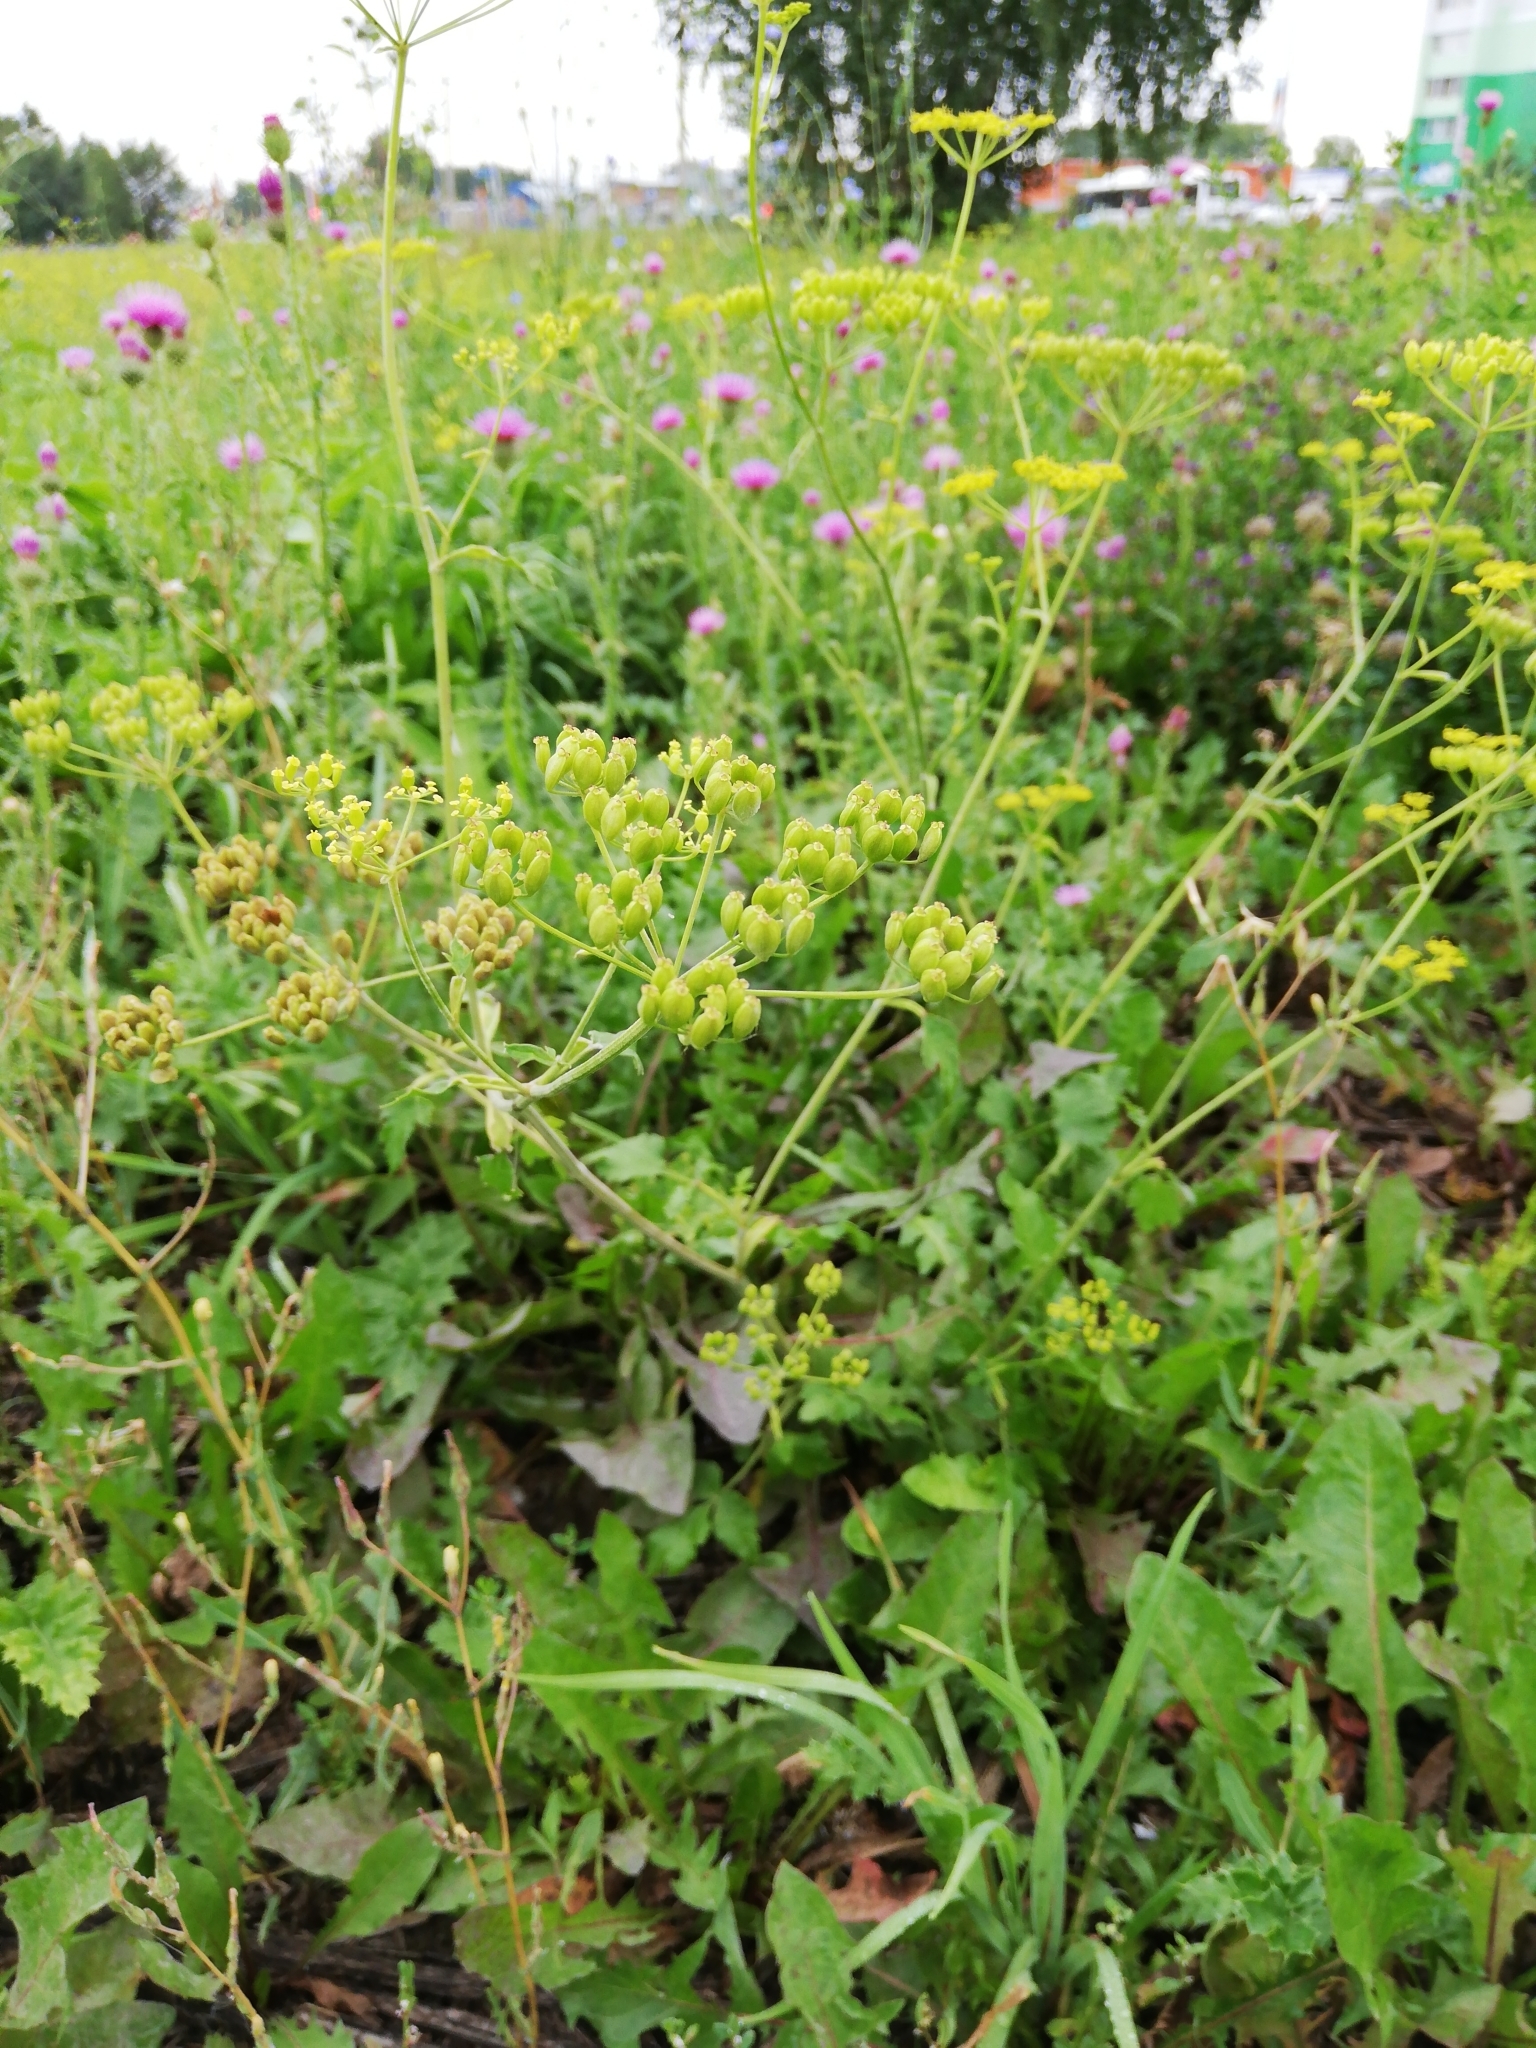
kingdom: Plantae
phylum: Tracheophyta
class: Magnoliopsida
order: Apiales
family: Apiaceae
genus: Pastinaca
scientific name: Pastinaca sativa
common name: Wild parsnip
